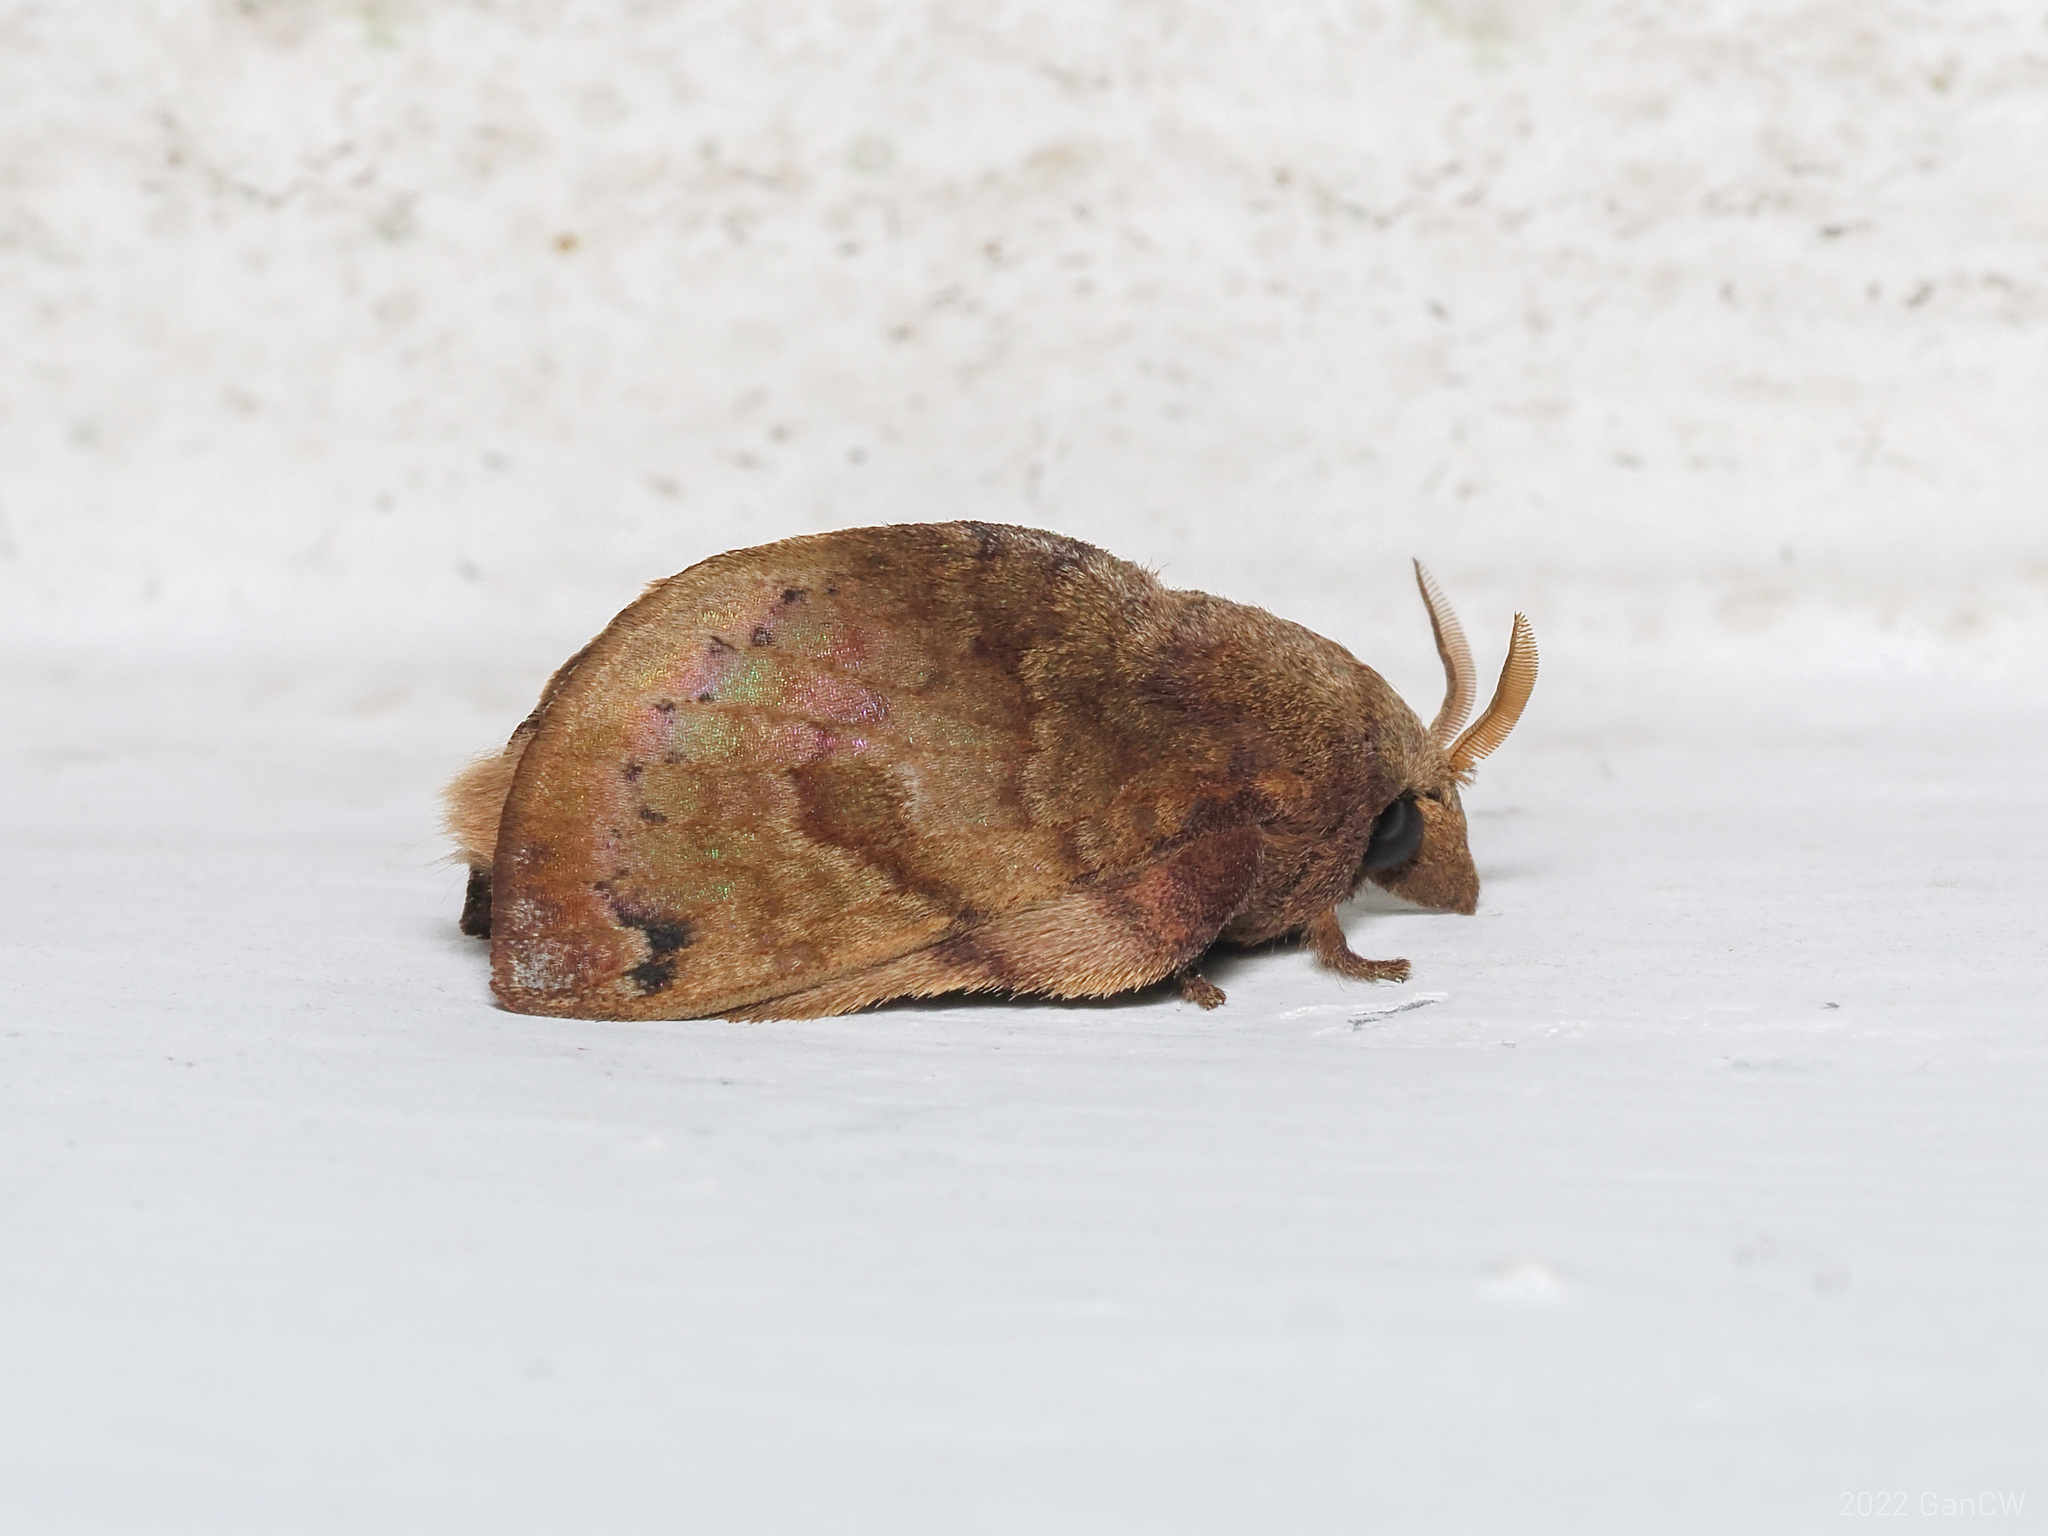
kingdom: Animalia
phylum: Arthropoda
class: Insecta
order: Lepidoptera
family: Lasiocampidae
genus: Micropacha
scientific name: Micropacha roepkei
